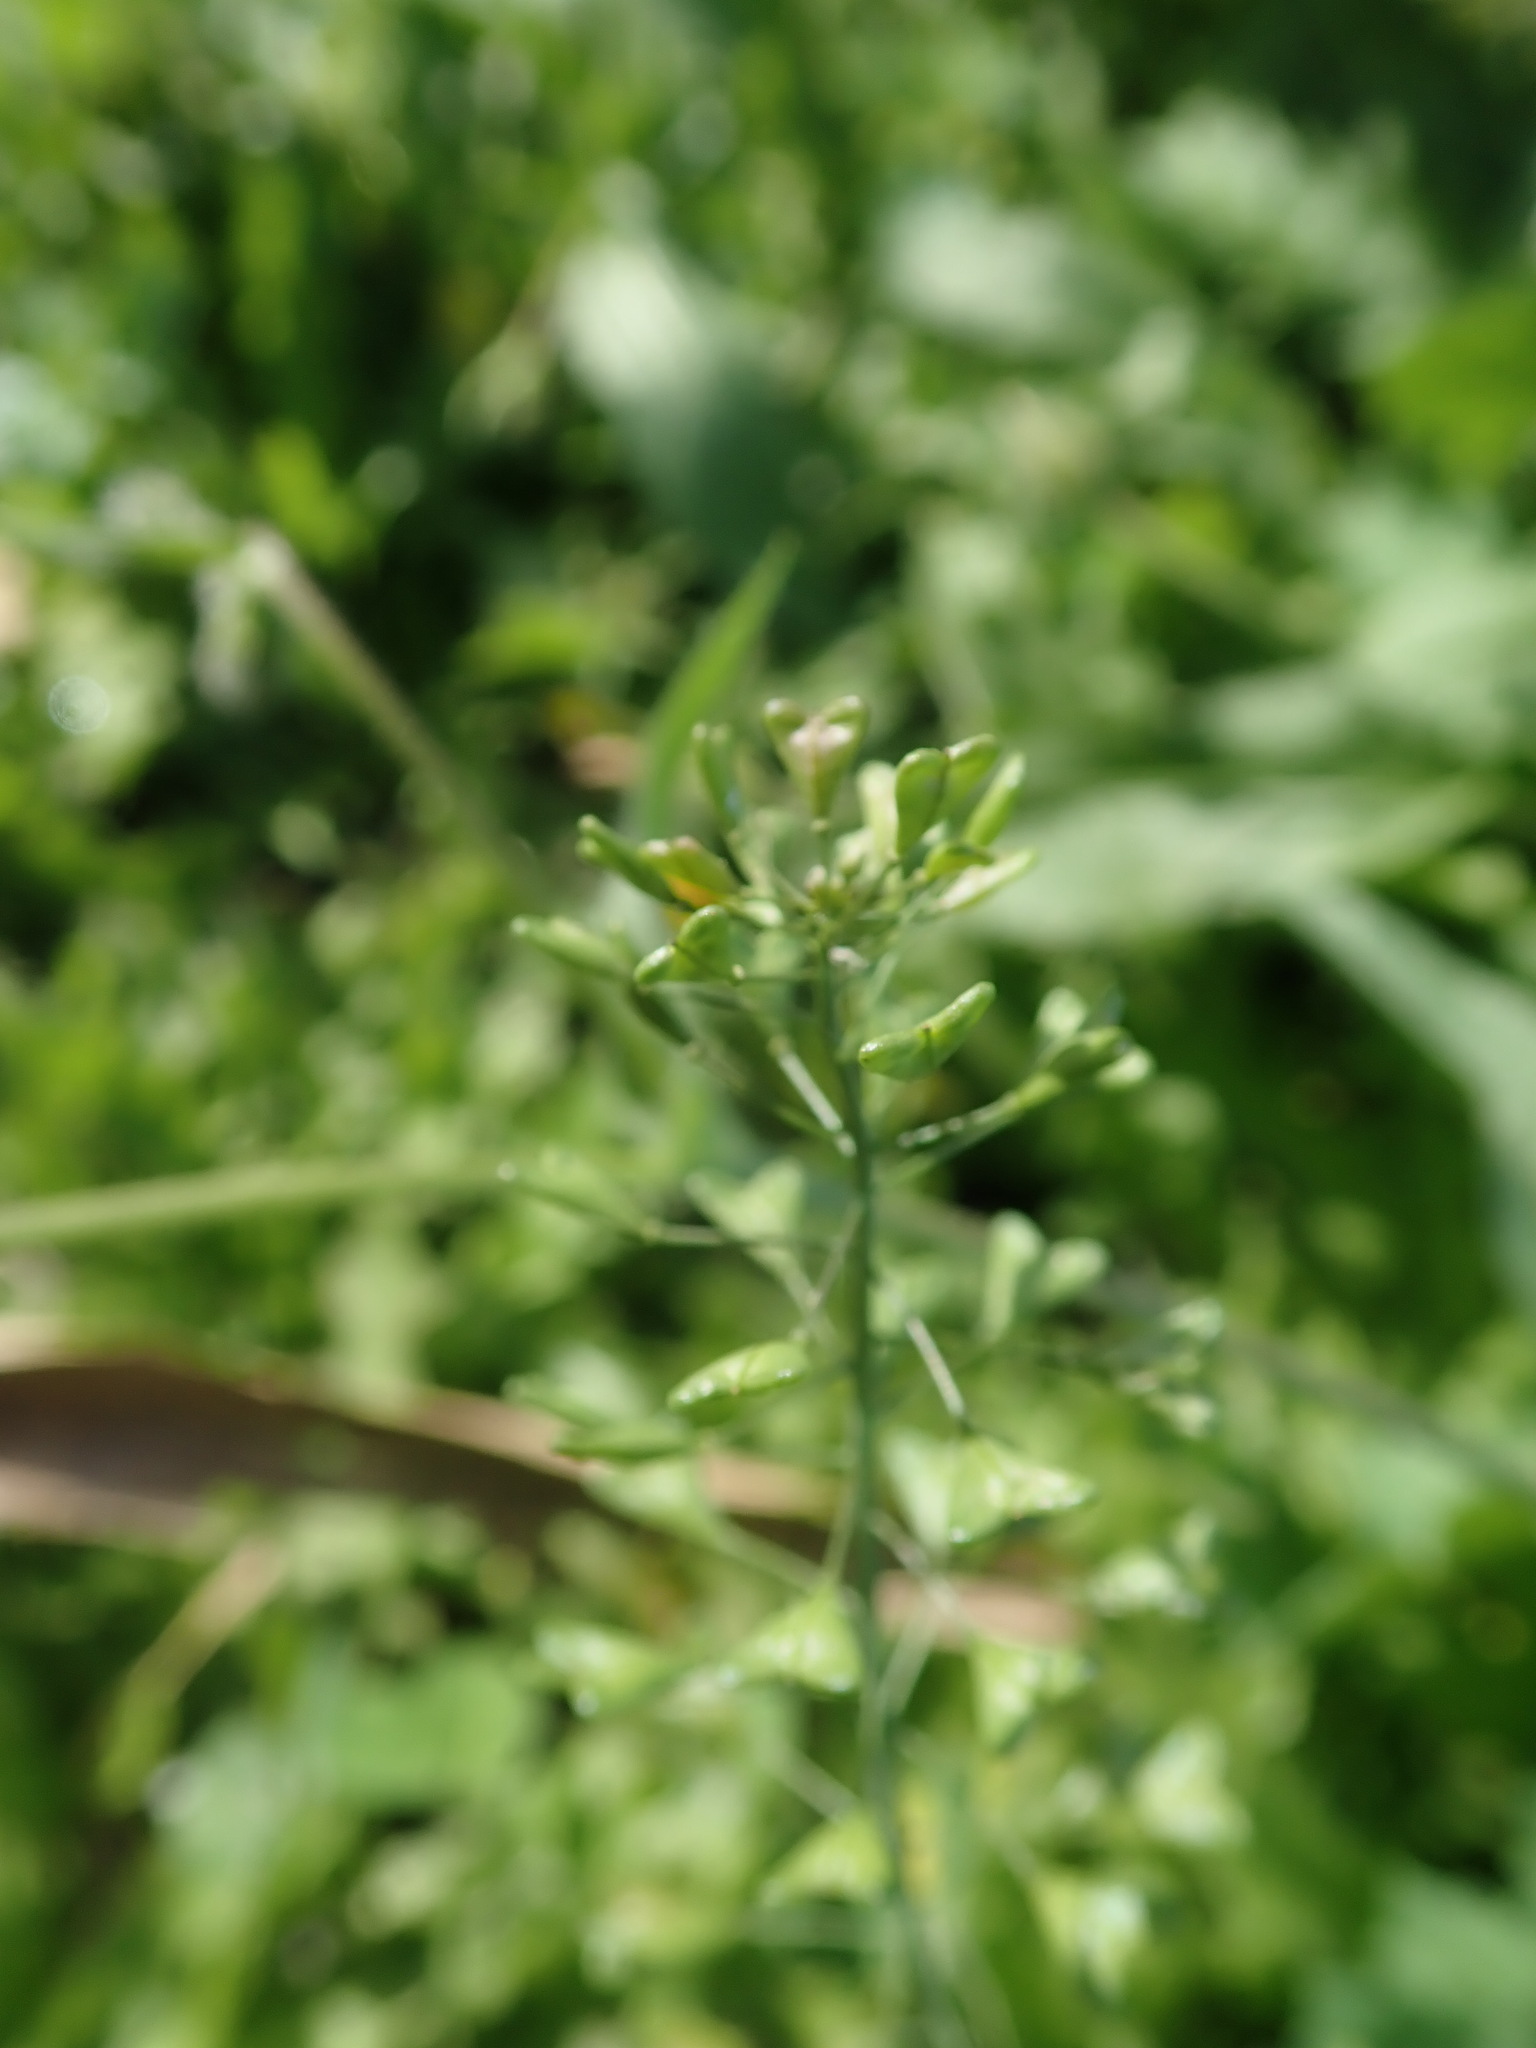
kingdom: Plantae
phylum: Tracheophyta
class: Magnoliopsida
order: Brassicales
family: Brassicaceae
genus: Capsella
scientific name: Capsella bursa-pastoris
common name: Shepherd's purse
